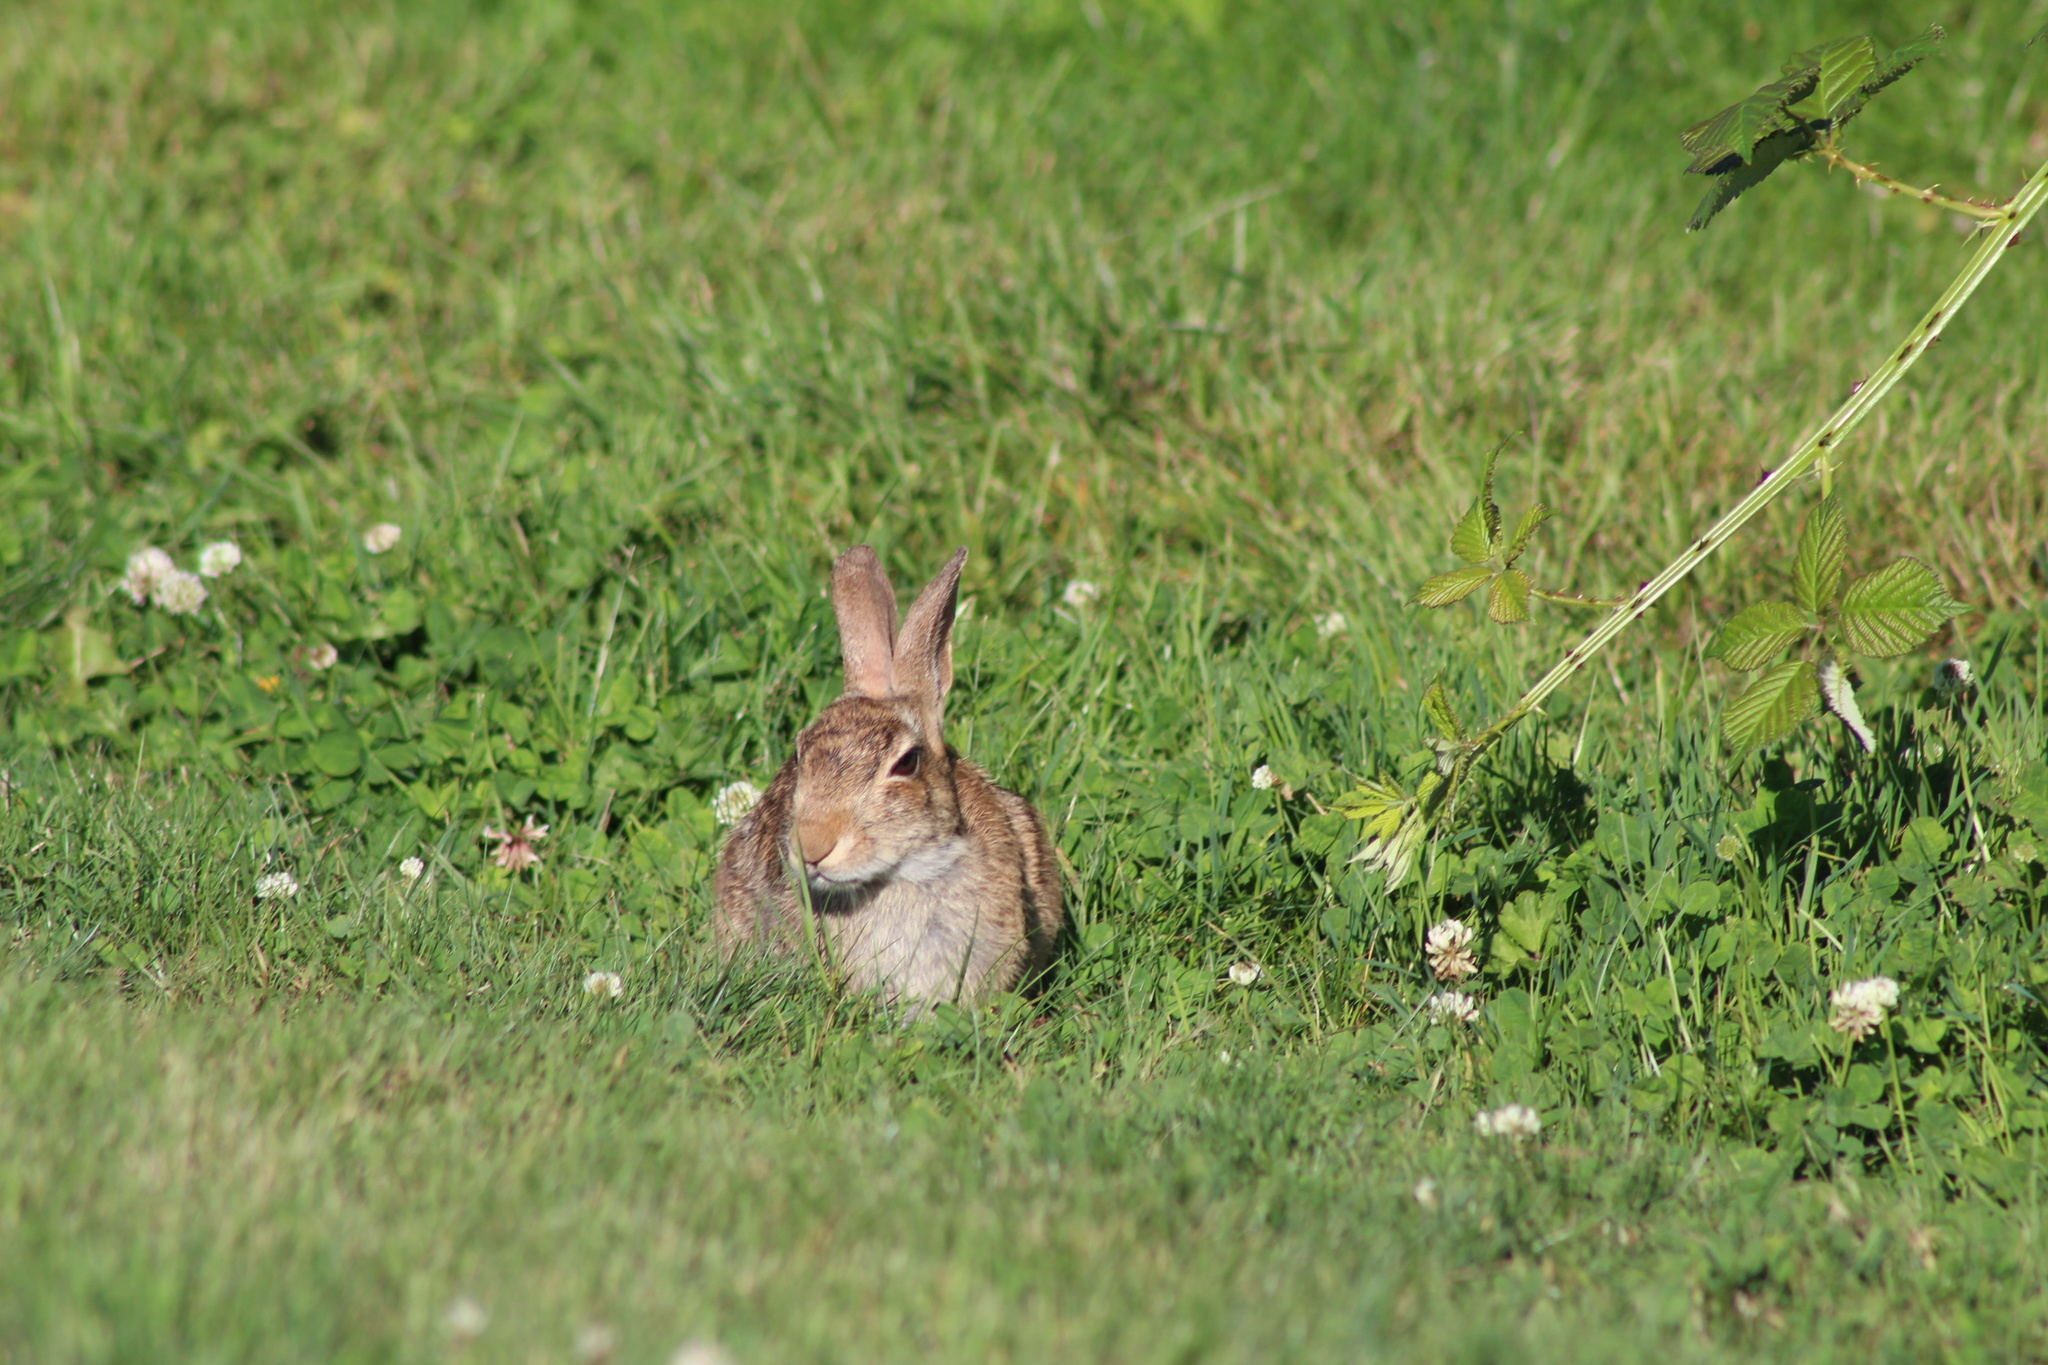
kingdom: Animalia
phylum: Chordata
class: Mammalia
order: Lagomorpha
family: Leporidae
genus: Sylvilagus
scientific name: Sylvilagus floridanus
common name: Eastern cottontail
